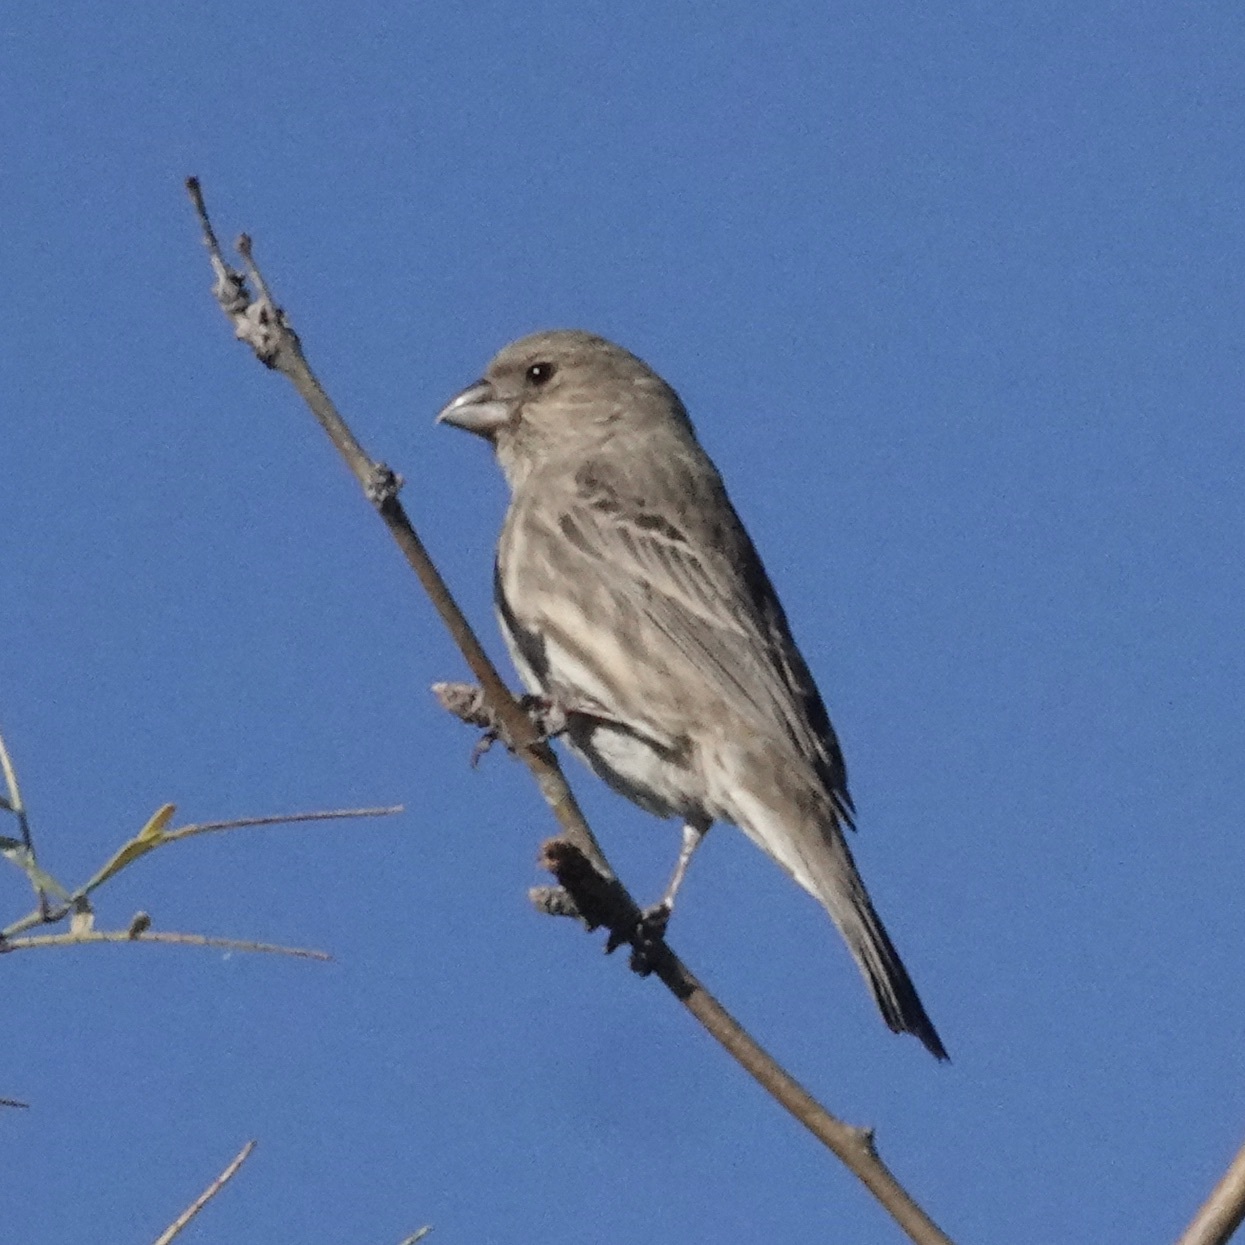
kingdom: Animalia
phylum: Chordata
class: Aves
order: Passeriformes
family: Fringillidae
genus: Haemorhous
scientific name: Haemorhous mexicanus
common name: House finch
